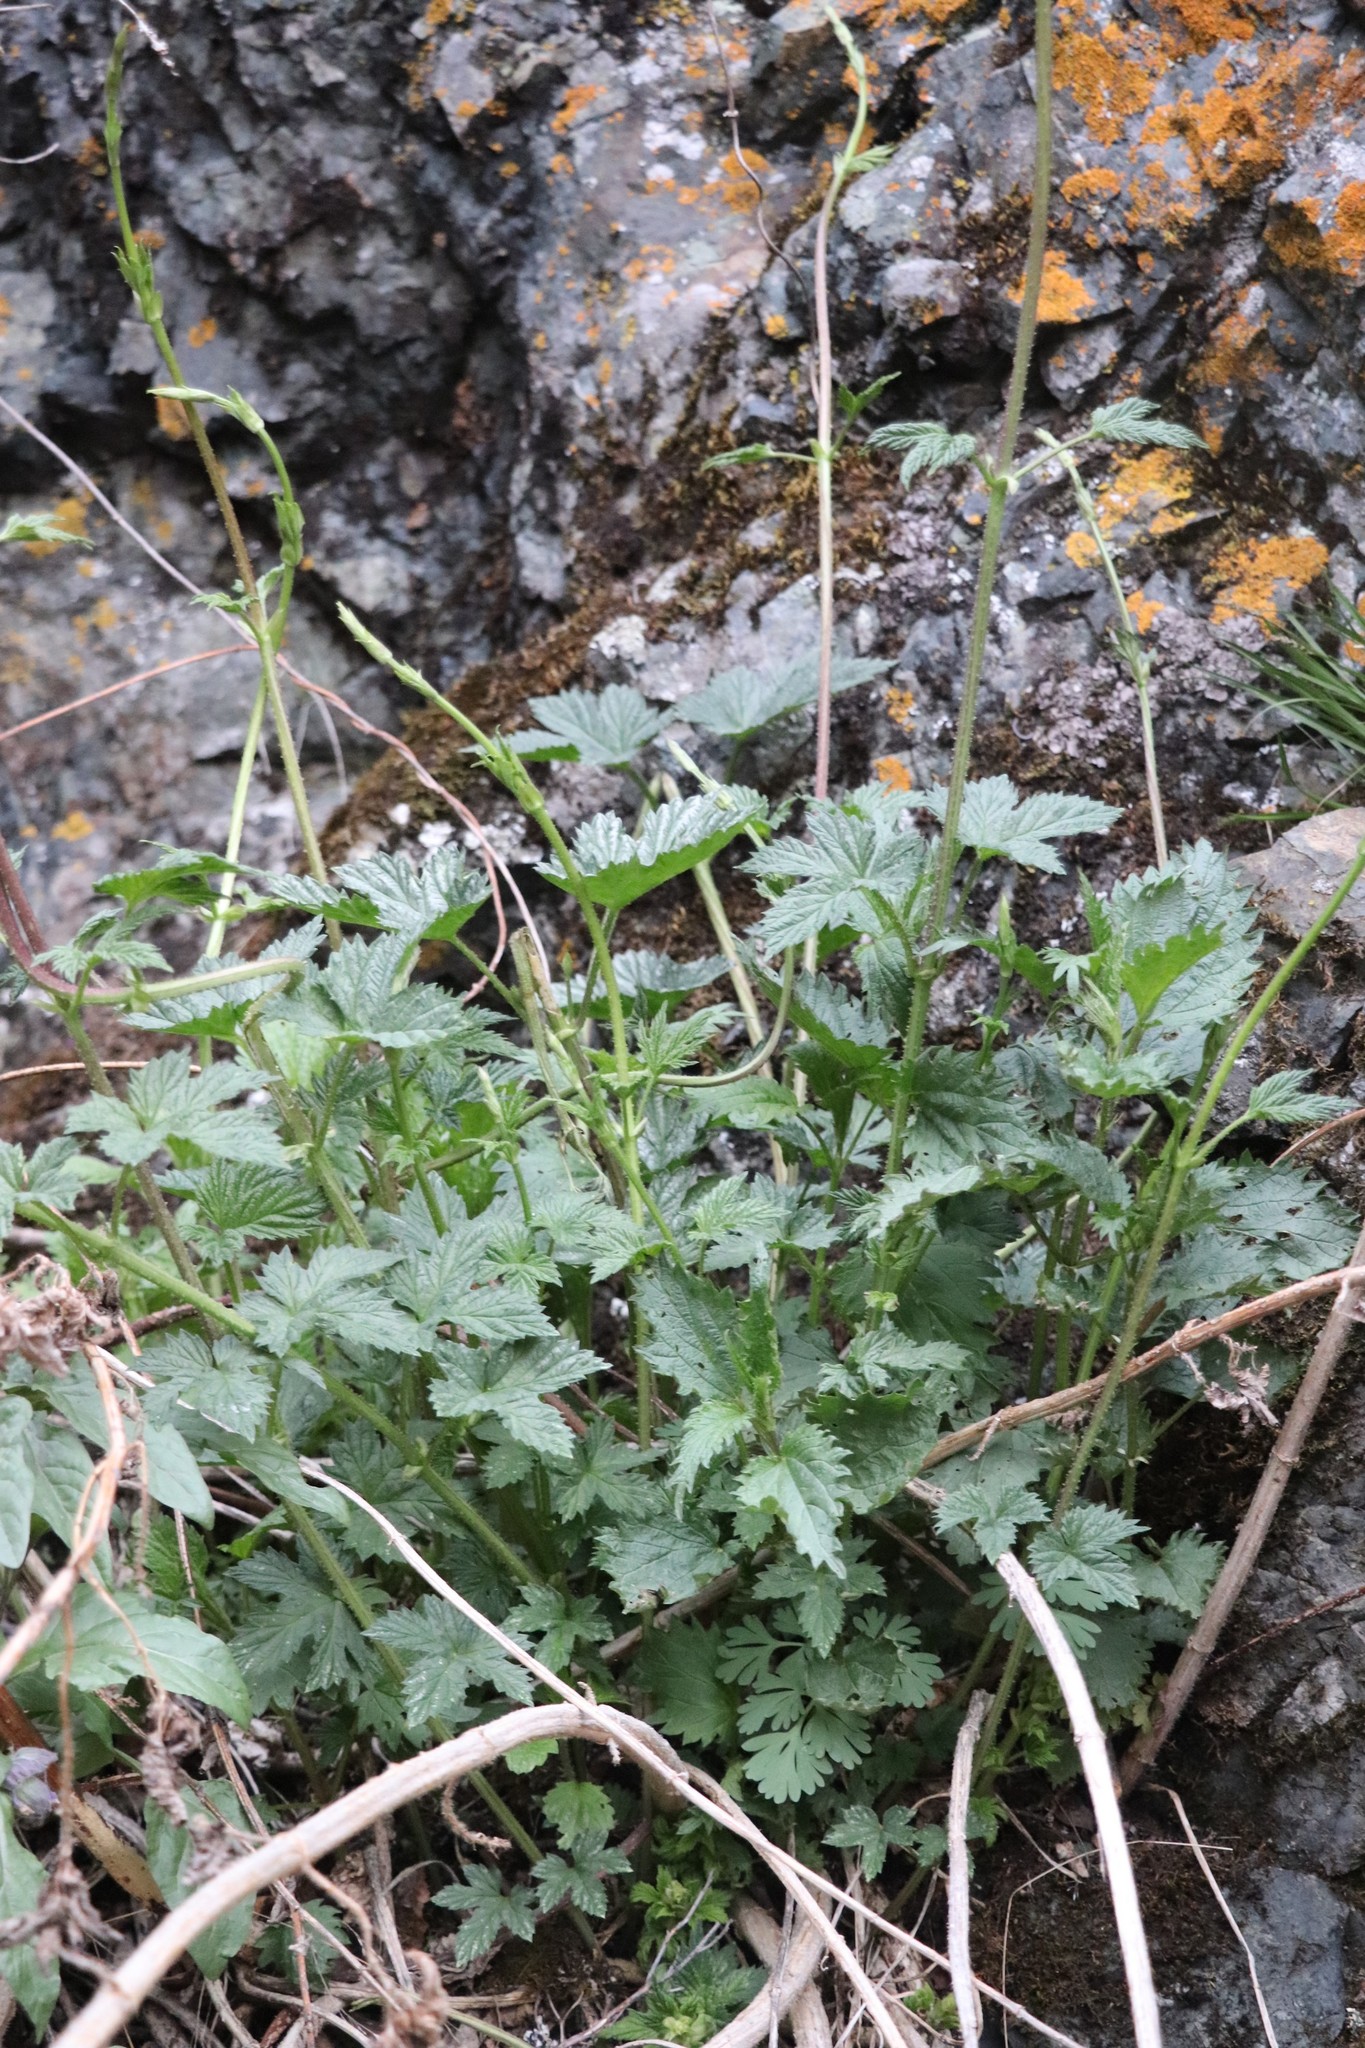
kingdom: Plantae
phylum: Tracheophyta
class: Magnoliopsida
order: Rosales
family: Cannabaceae
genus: Humulus
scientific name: Humulus lupulus
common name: Hop
